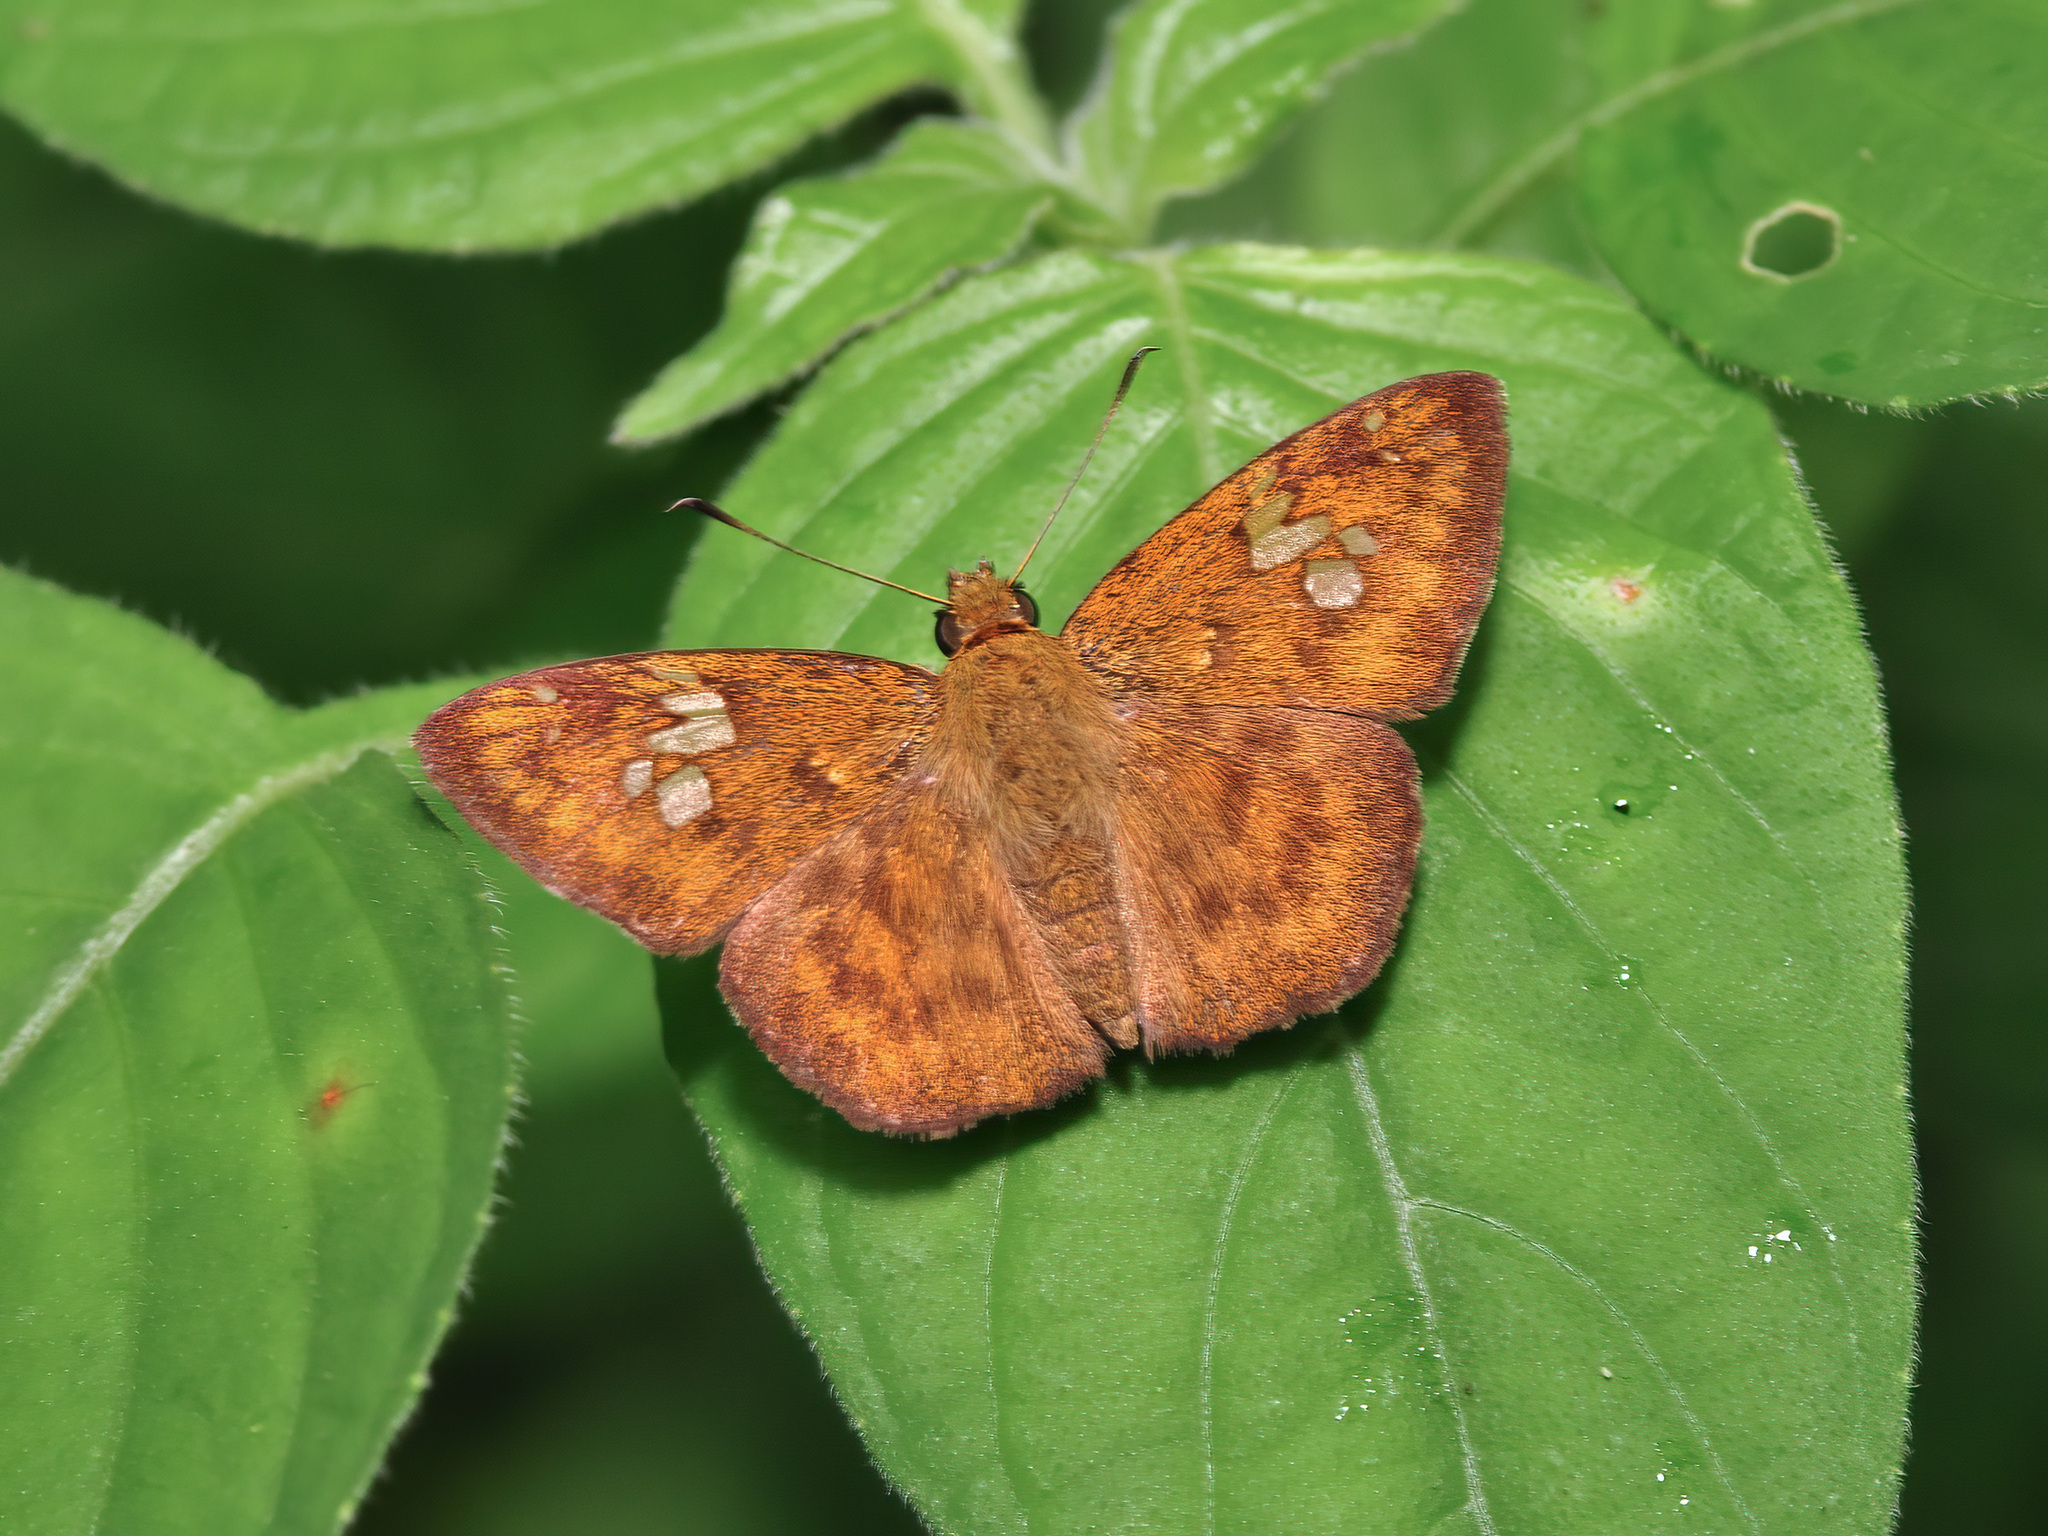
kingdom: Animalia
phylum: Arthropoda
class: Insecta
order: Lepidoptera
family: Hesperiidae
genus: Pseudocoladenia
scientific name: Pseudocoladenia dan
